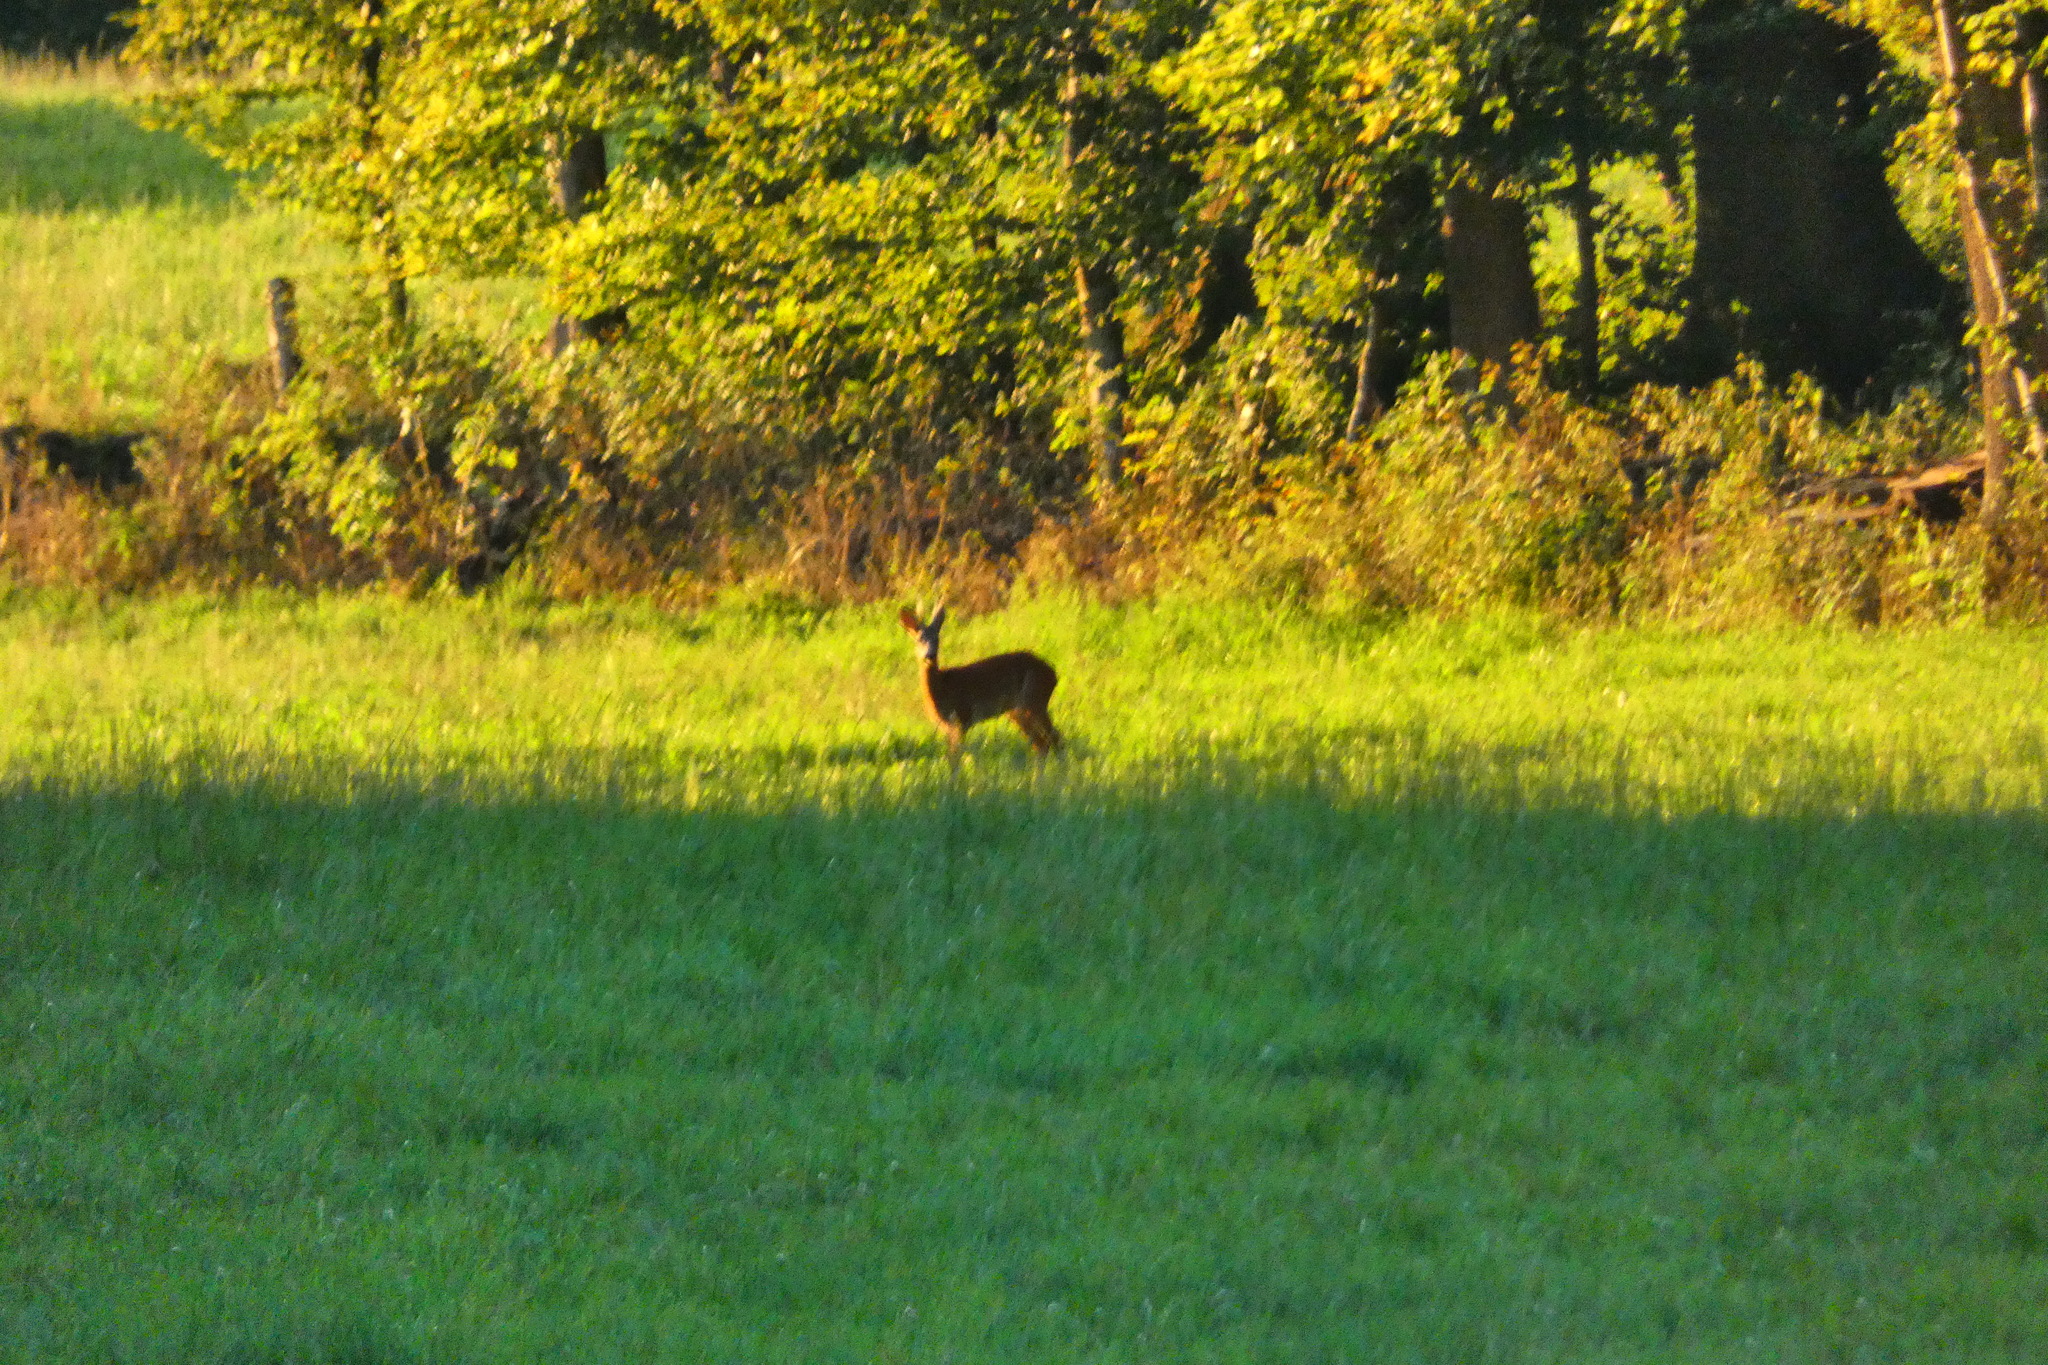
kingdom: Animalia
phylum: Chordata
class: Mammalia
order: Artiodactyla
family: Cervidae
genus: Capreolus
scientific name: Capreolus capreolus
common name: Western roe deer
